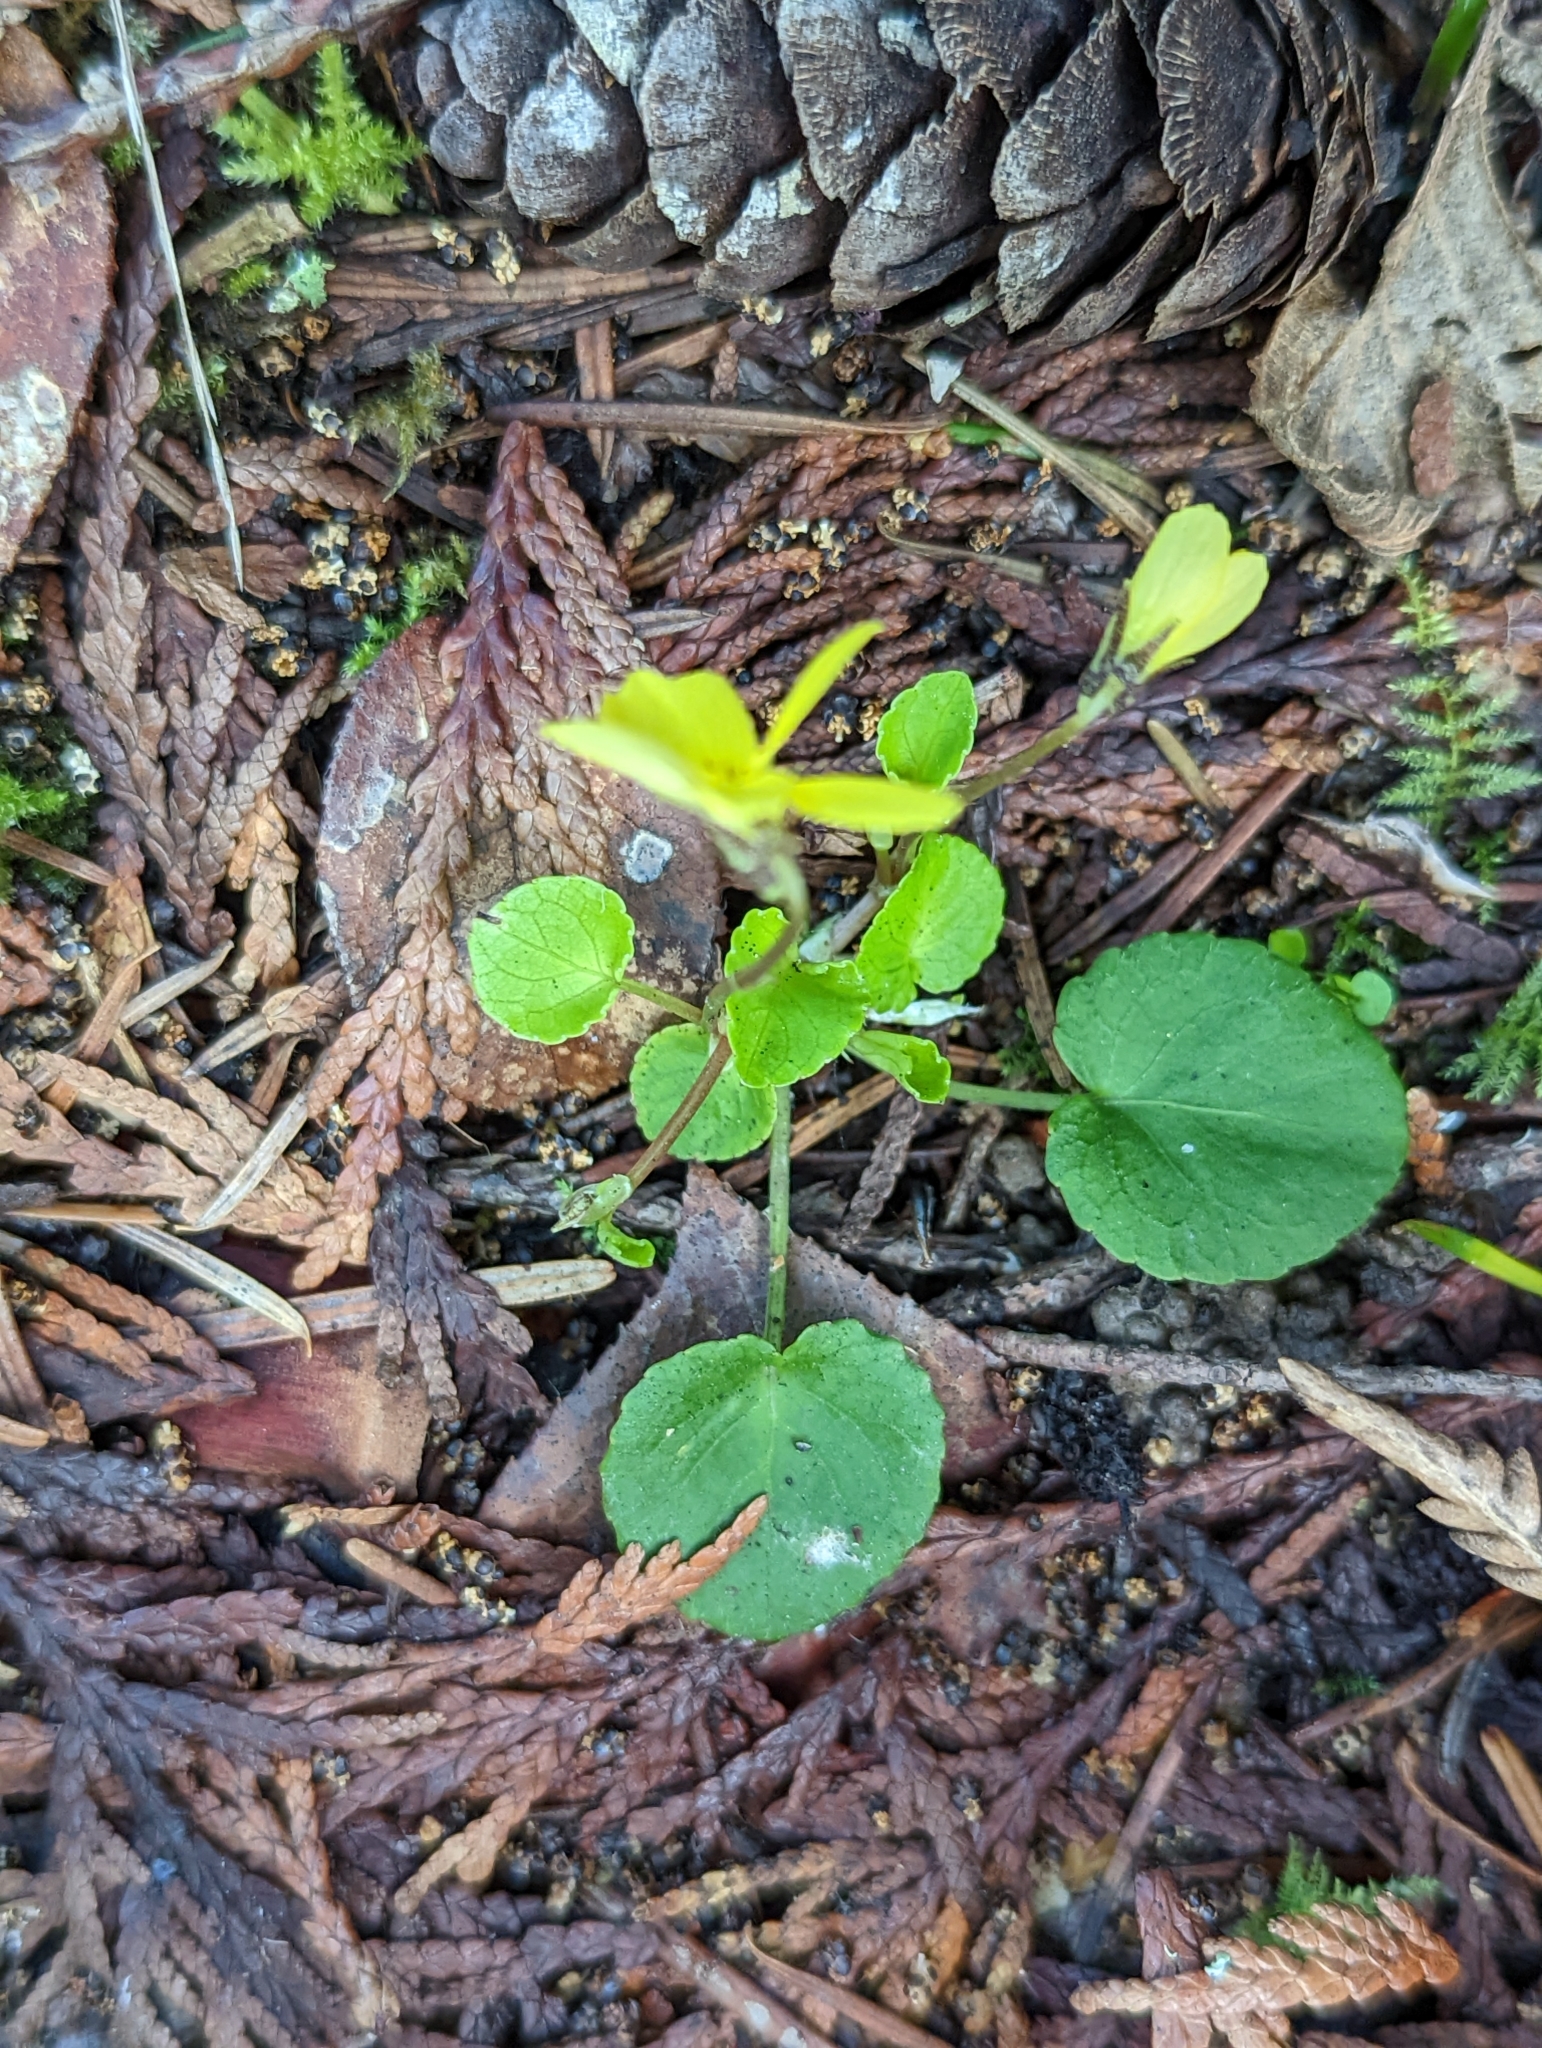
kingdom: Plantae
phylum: Tracheophyta
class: Magnoliopsida
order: Malpighiales
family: Violaceae
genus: Viola
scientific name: Viola sempervirens
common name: Evergreen violet
